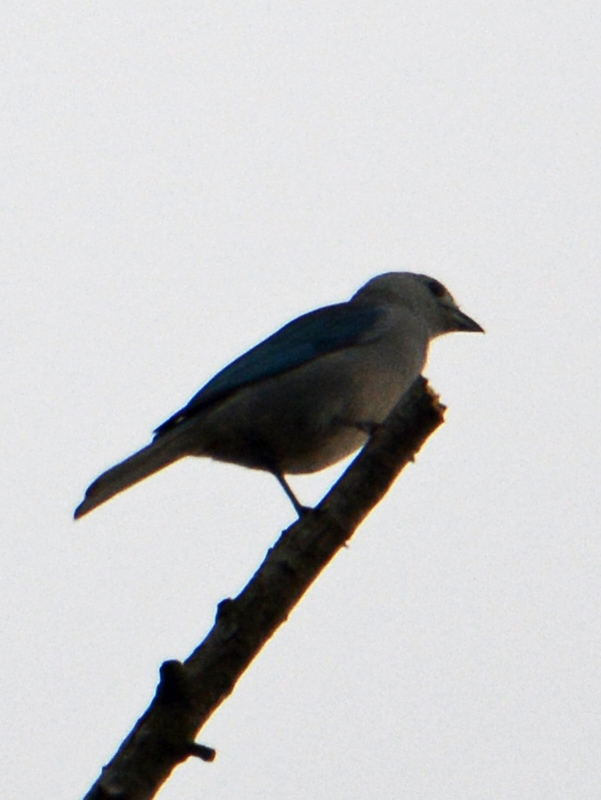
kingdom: Animalia
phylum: Chordata
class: Aves
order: Passeriformes
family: Thraupidae
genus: Thraupis
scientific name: Thraupis episcopus
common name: Blue-grey tanager
